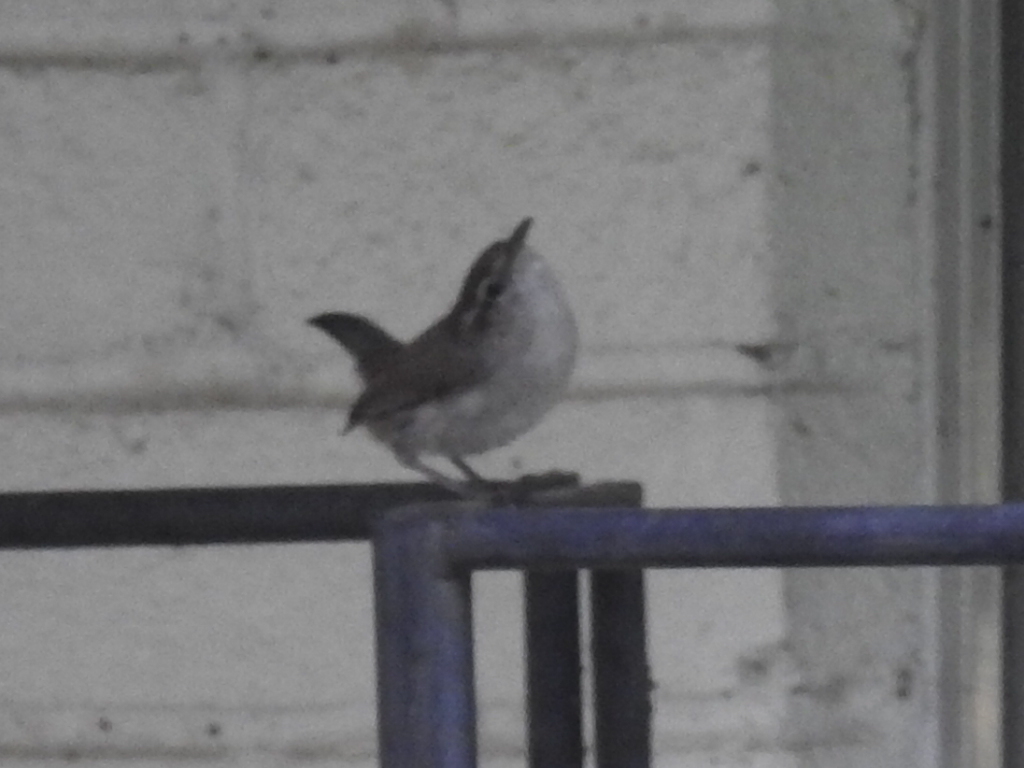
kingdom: Animalia
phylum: Chordata
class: Aves
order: Passeriformes
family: Troglodytidae
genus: Thryomanes
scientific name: Thryomanes bewickii
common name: Bewick's wren
